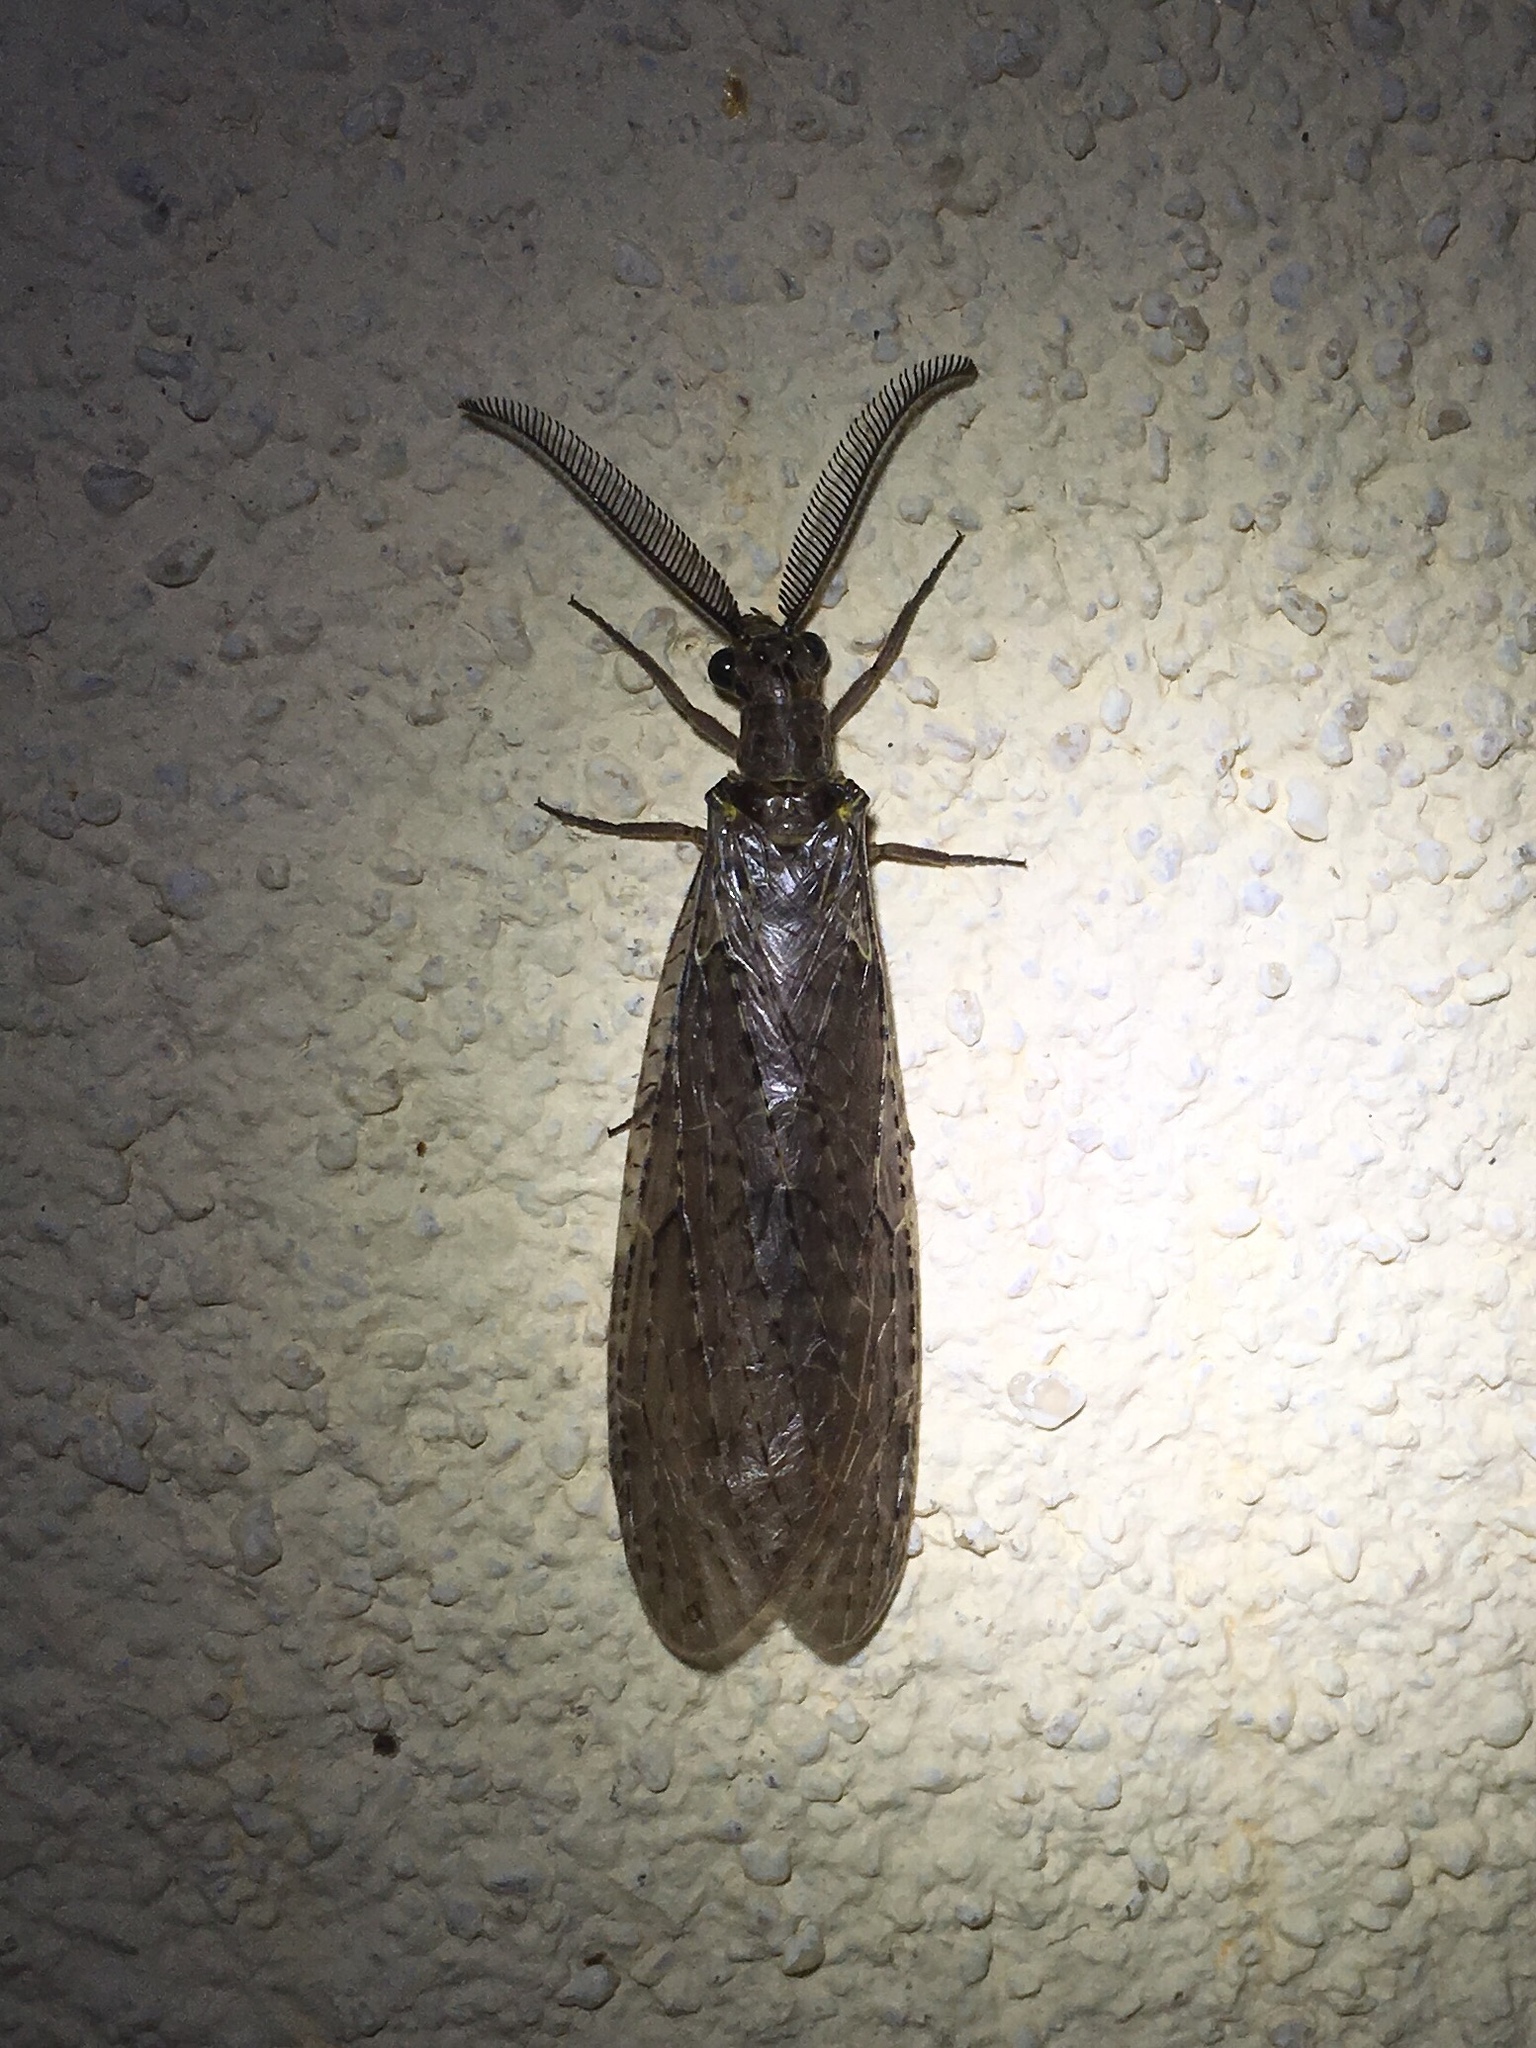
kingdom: Animalia
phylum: Arthropoda
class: Insecta
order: Megaloptera
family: Corydalidae
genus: Chauliodes
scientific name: Chauliodes rastricornis
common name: Spring fishfly
